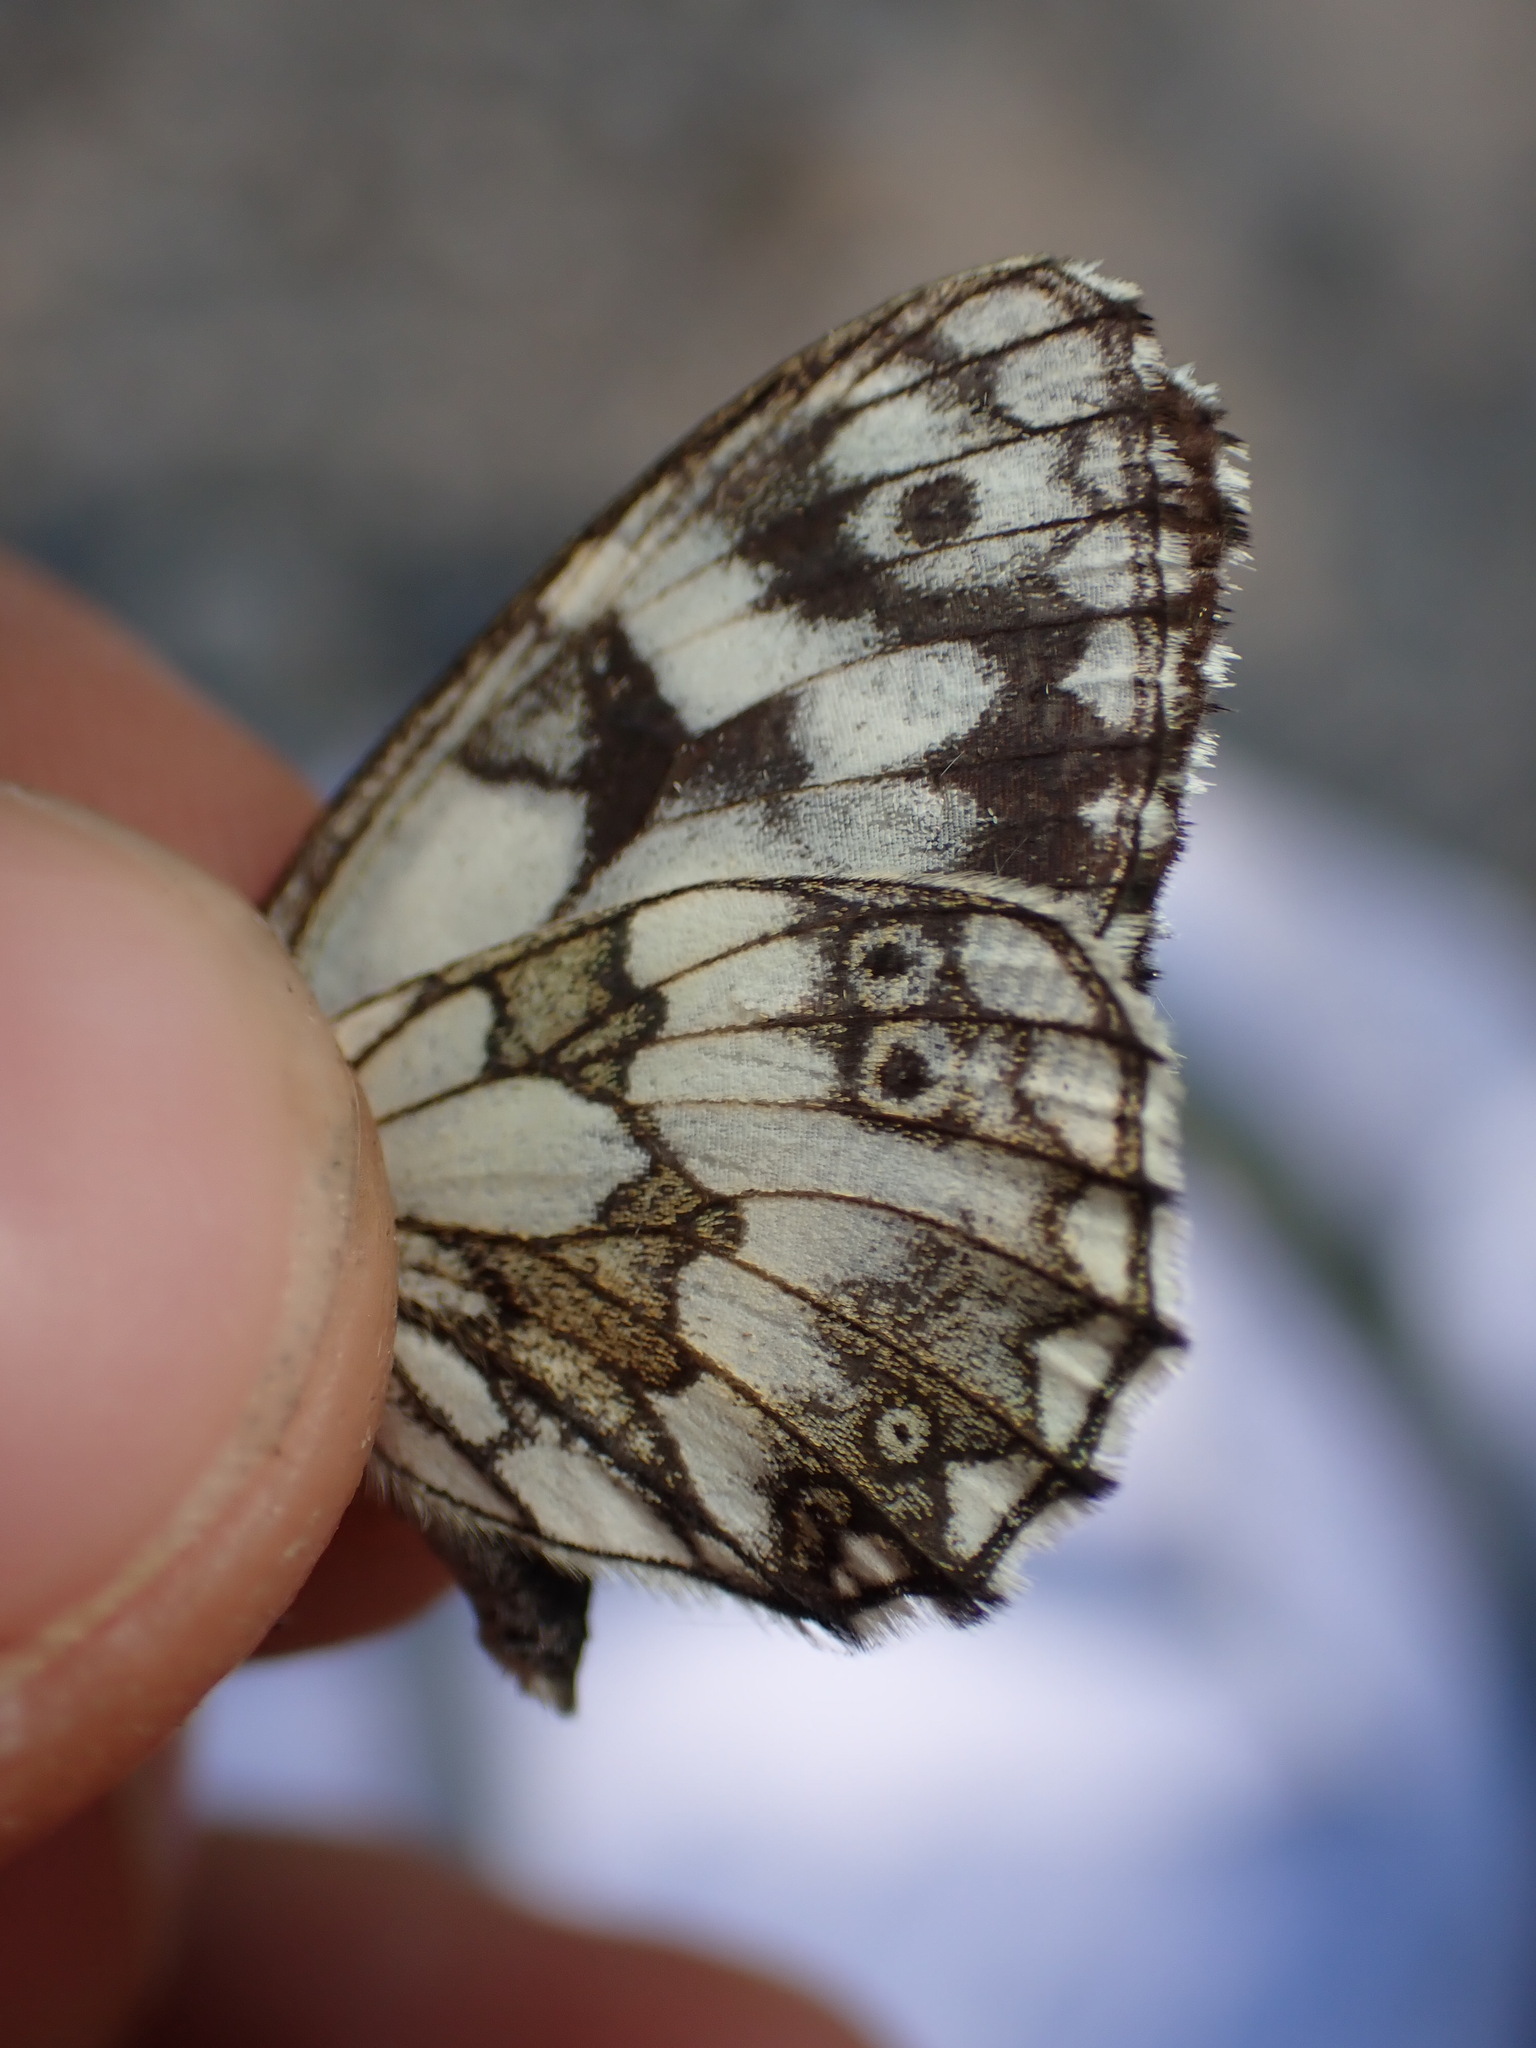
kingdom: Animalia
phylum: Arthropoda
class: Insecta
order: Lepidoptera
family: Nymphalidae
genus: Melanargia
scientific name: Melanargia galathea
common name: Marbled white
